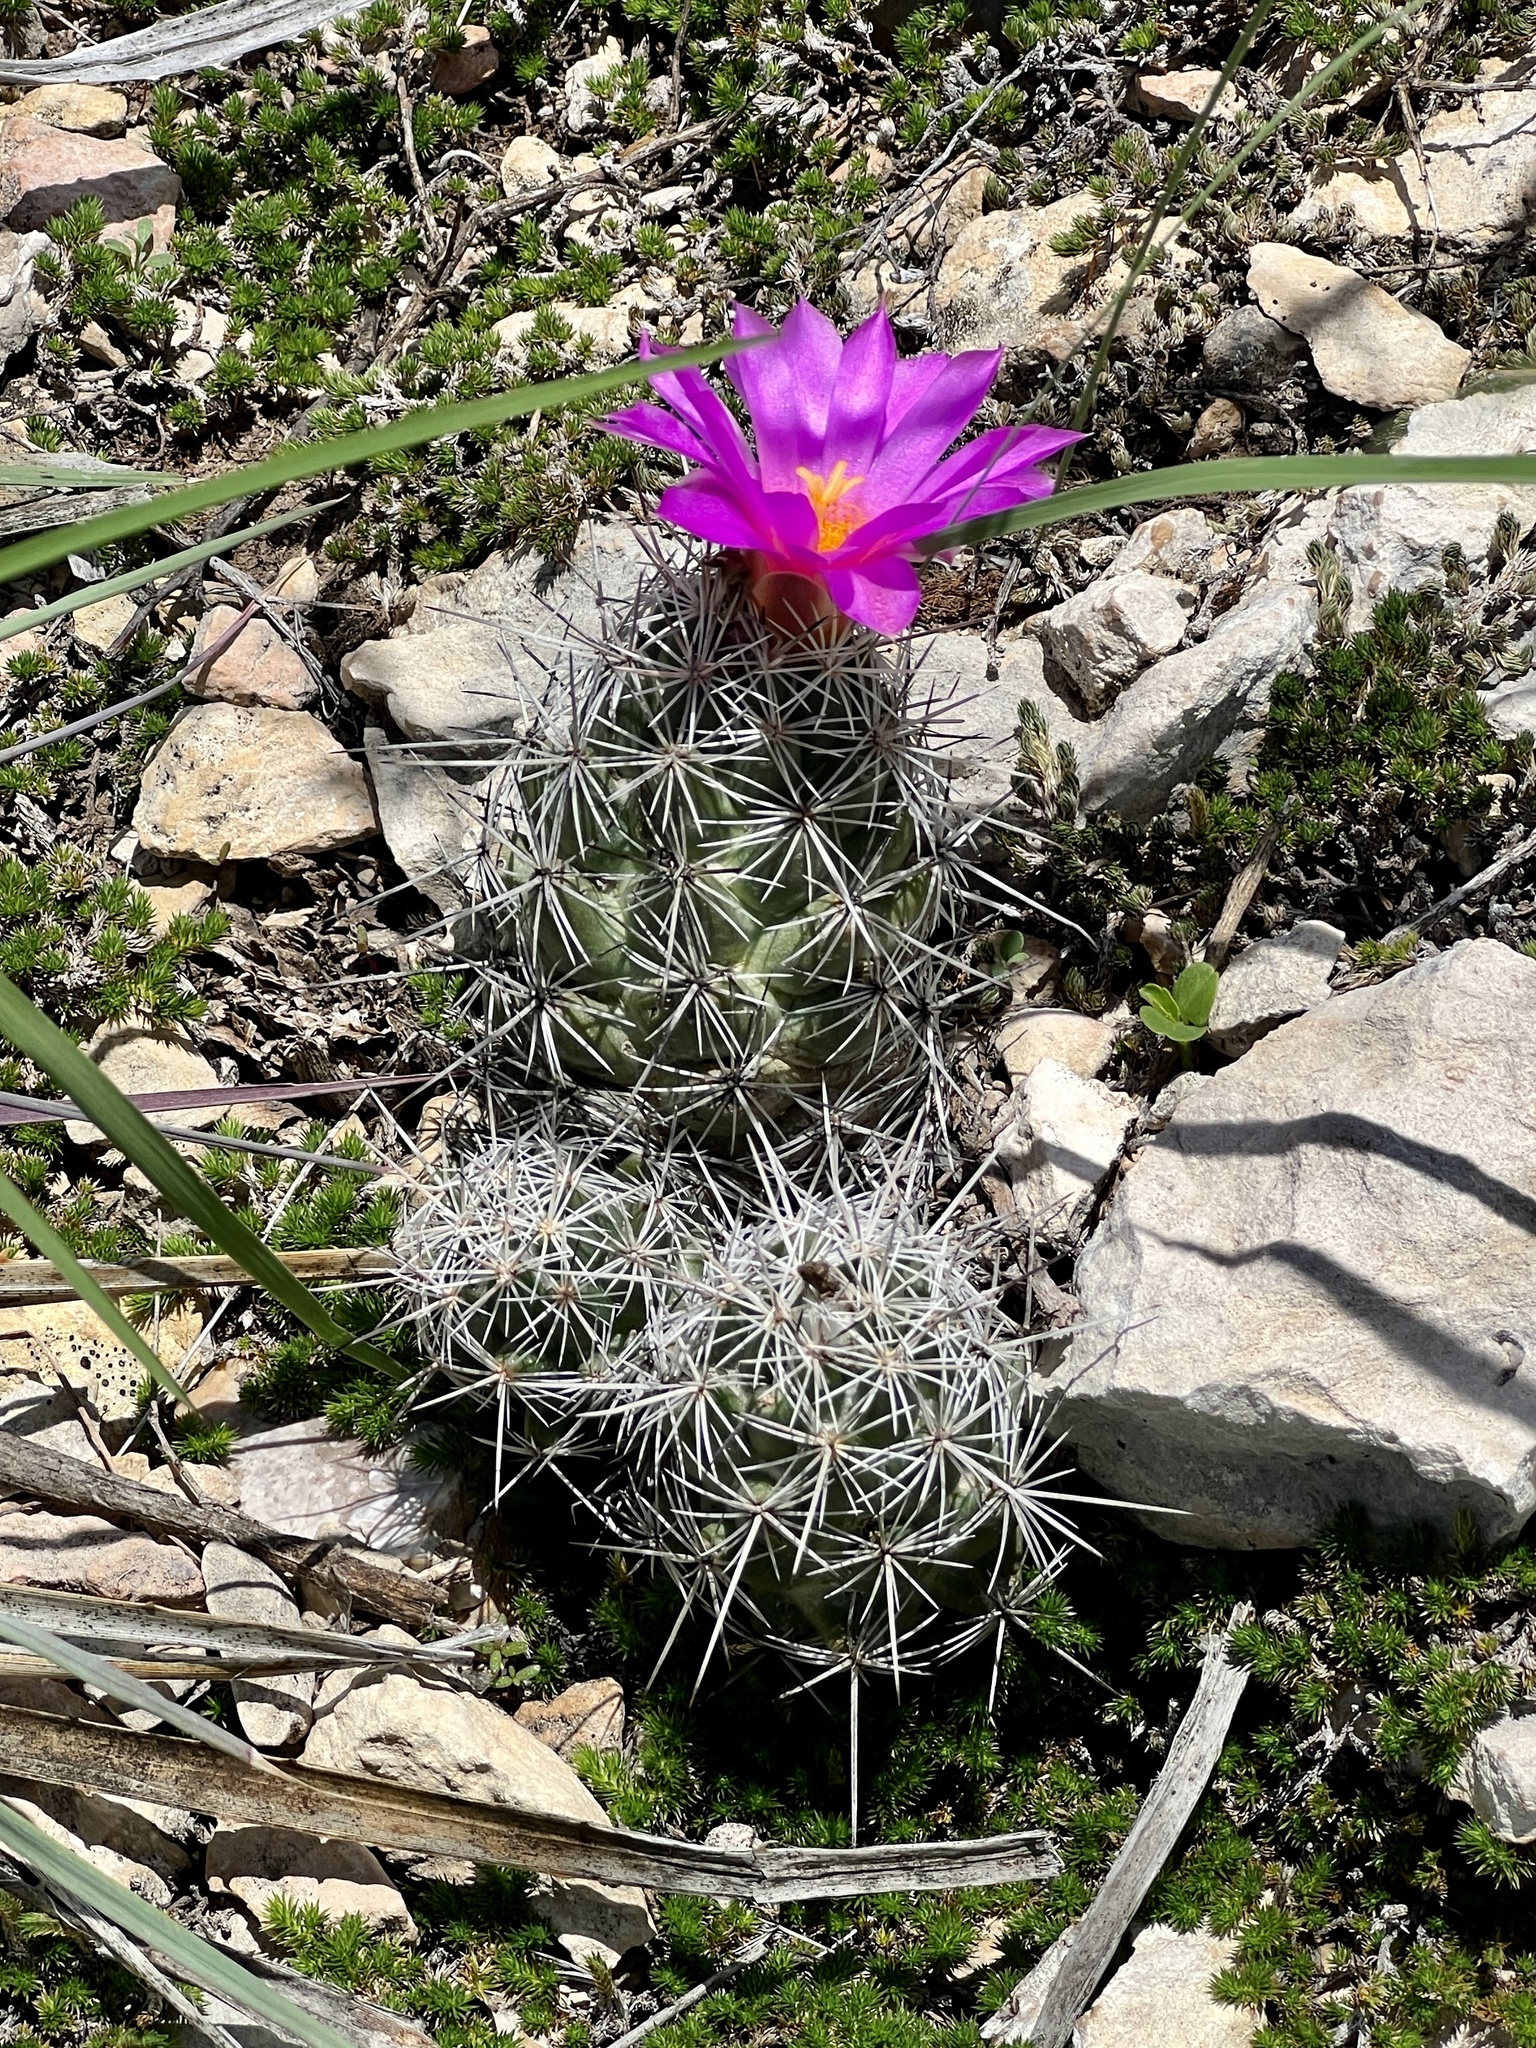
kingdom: Plantae
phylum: Tracheophyta
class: Magnoliopsida
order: Caryophyllales
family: Cactaceae
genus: Cochemiea
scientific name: Cochemiea conoidea
